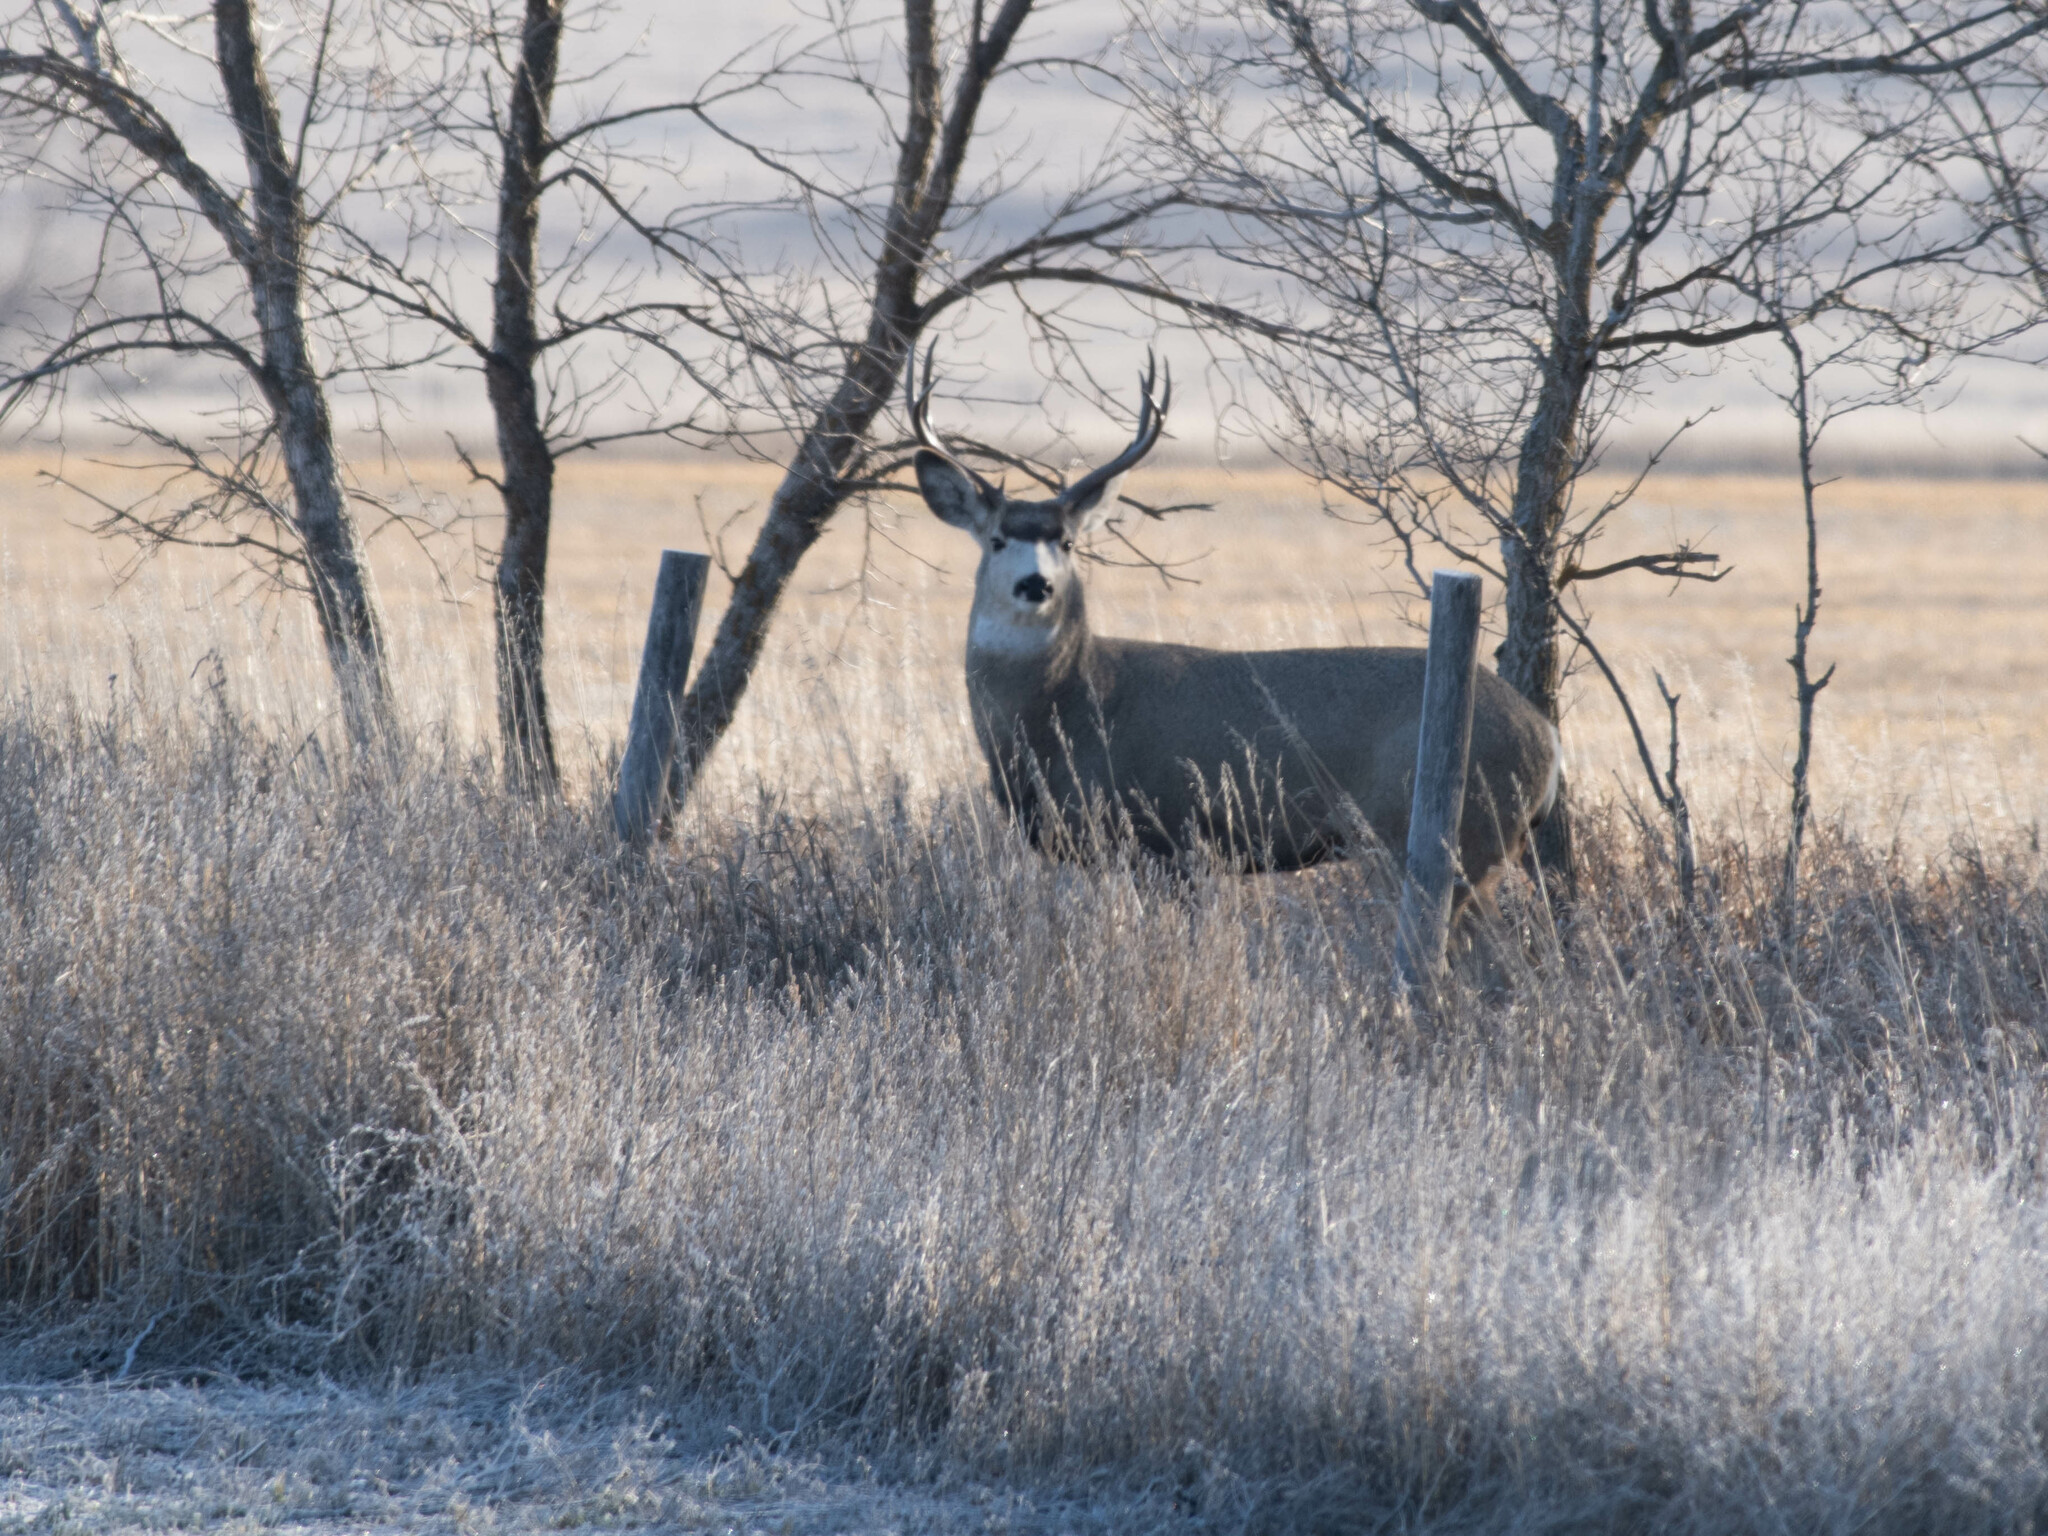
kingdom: Animalia
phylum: Chordata
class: Mammalia
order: Artiodactyla
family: Cervidae
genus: Odocoileus
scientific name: Odocoileus hemionus
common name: Mule deer
